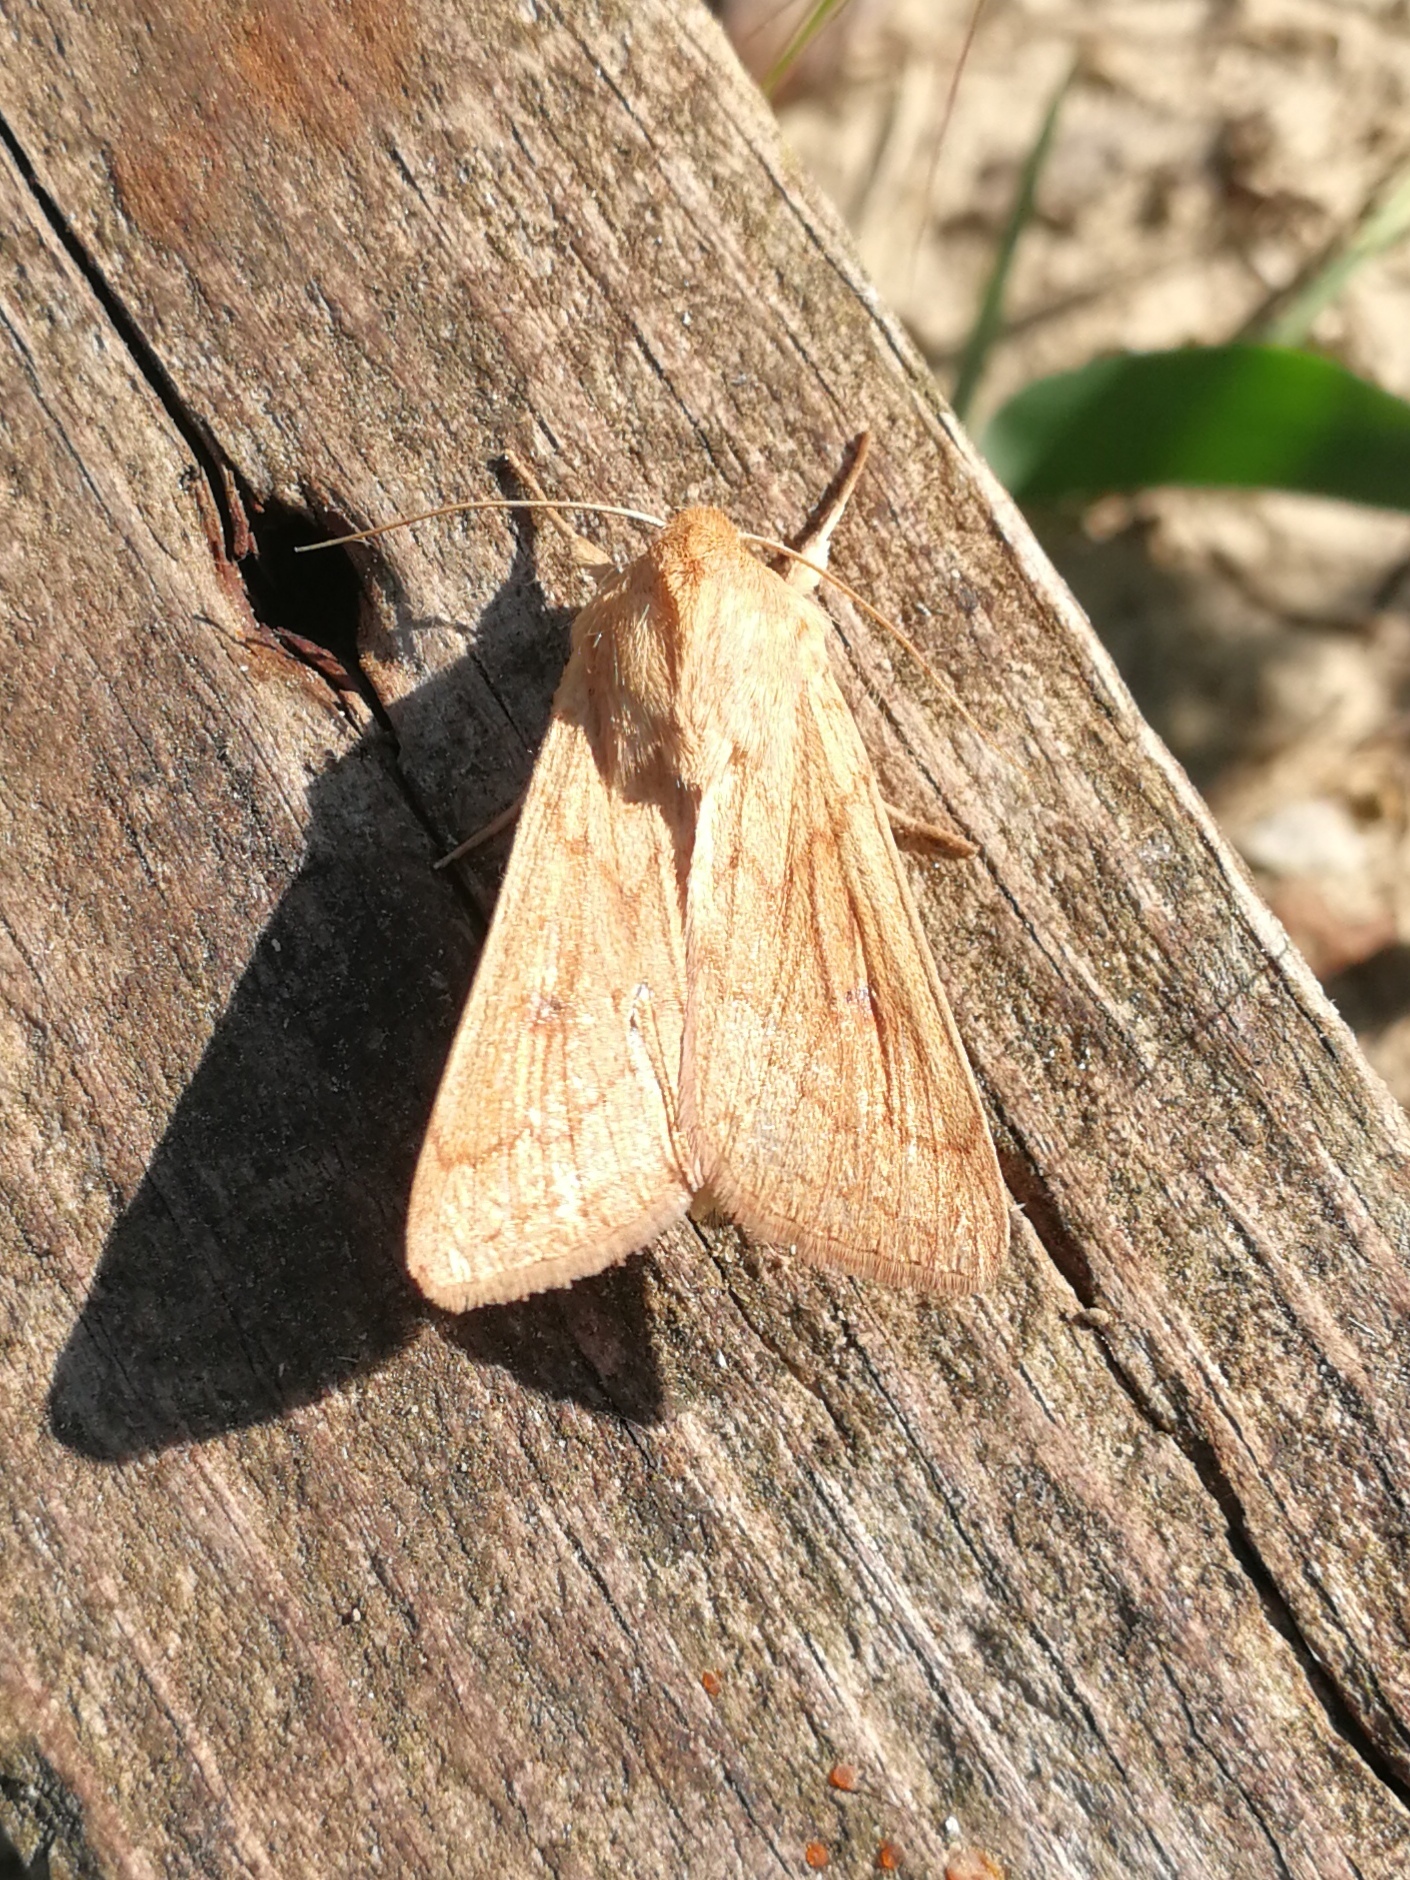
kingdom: Animalia
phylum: Arthropoda
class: Insecta
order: Lepidoptera
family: Noctuidae
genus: Mythimna
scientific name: Mythimna vitellina
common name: Delicate
